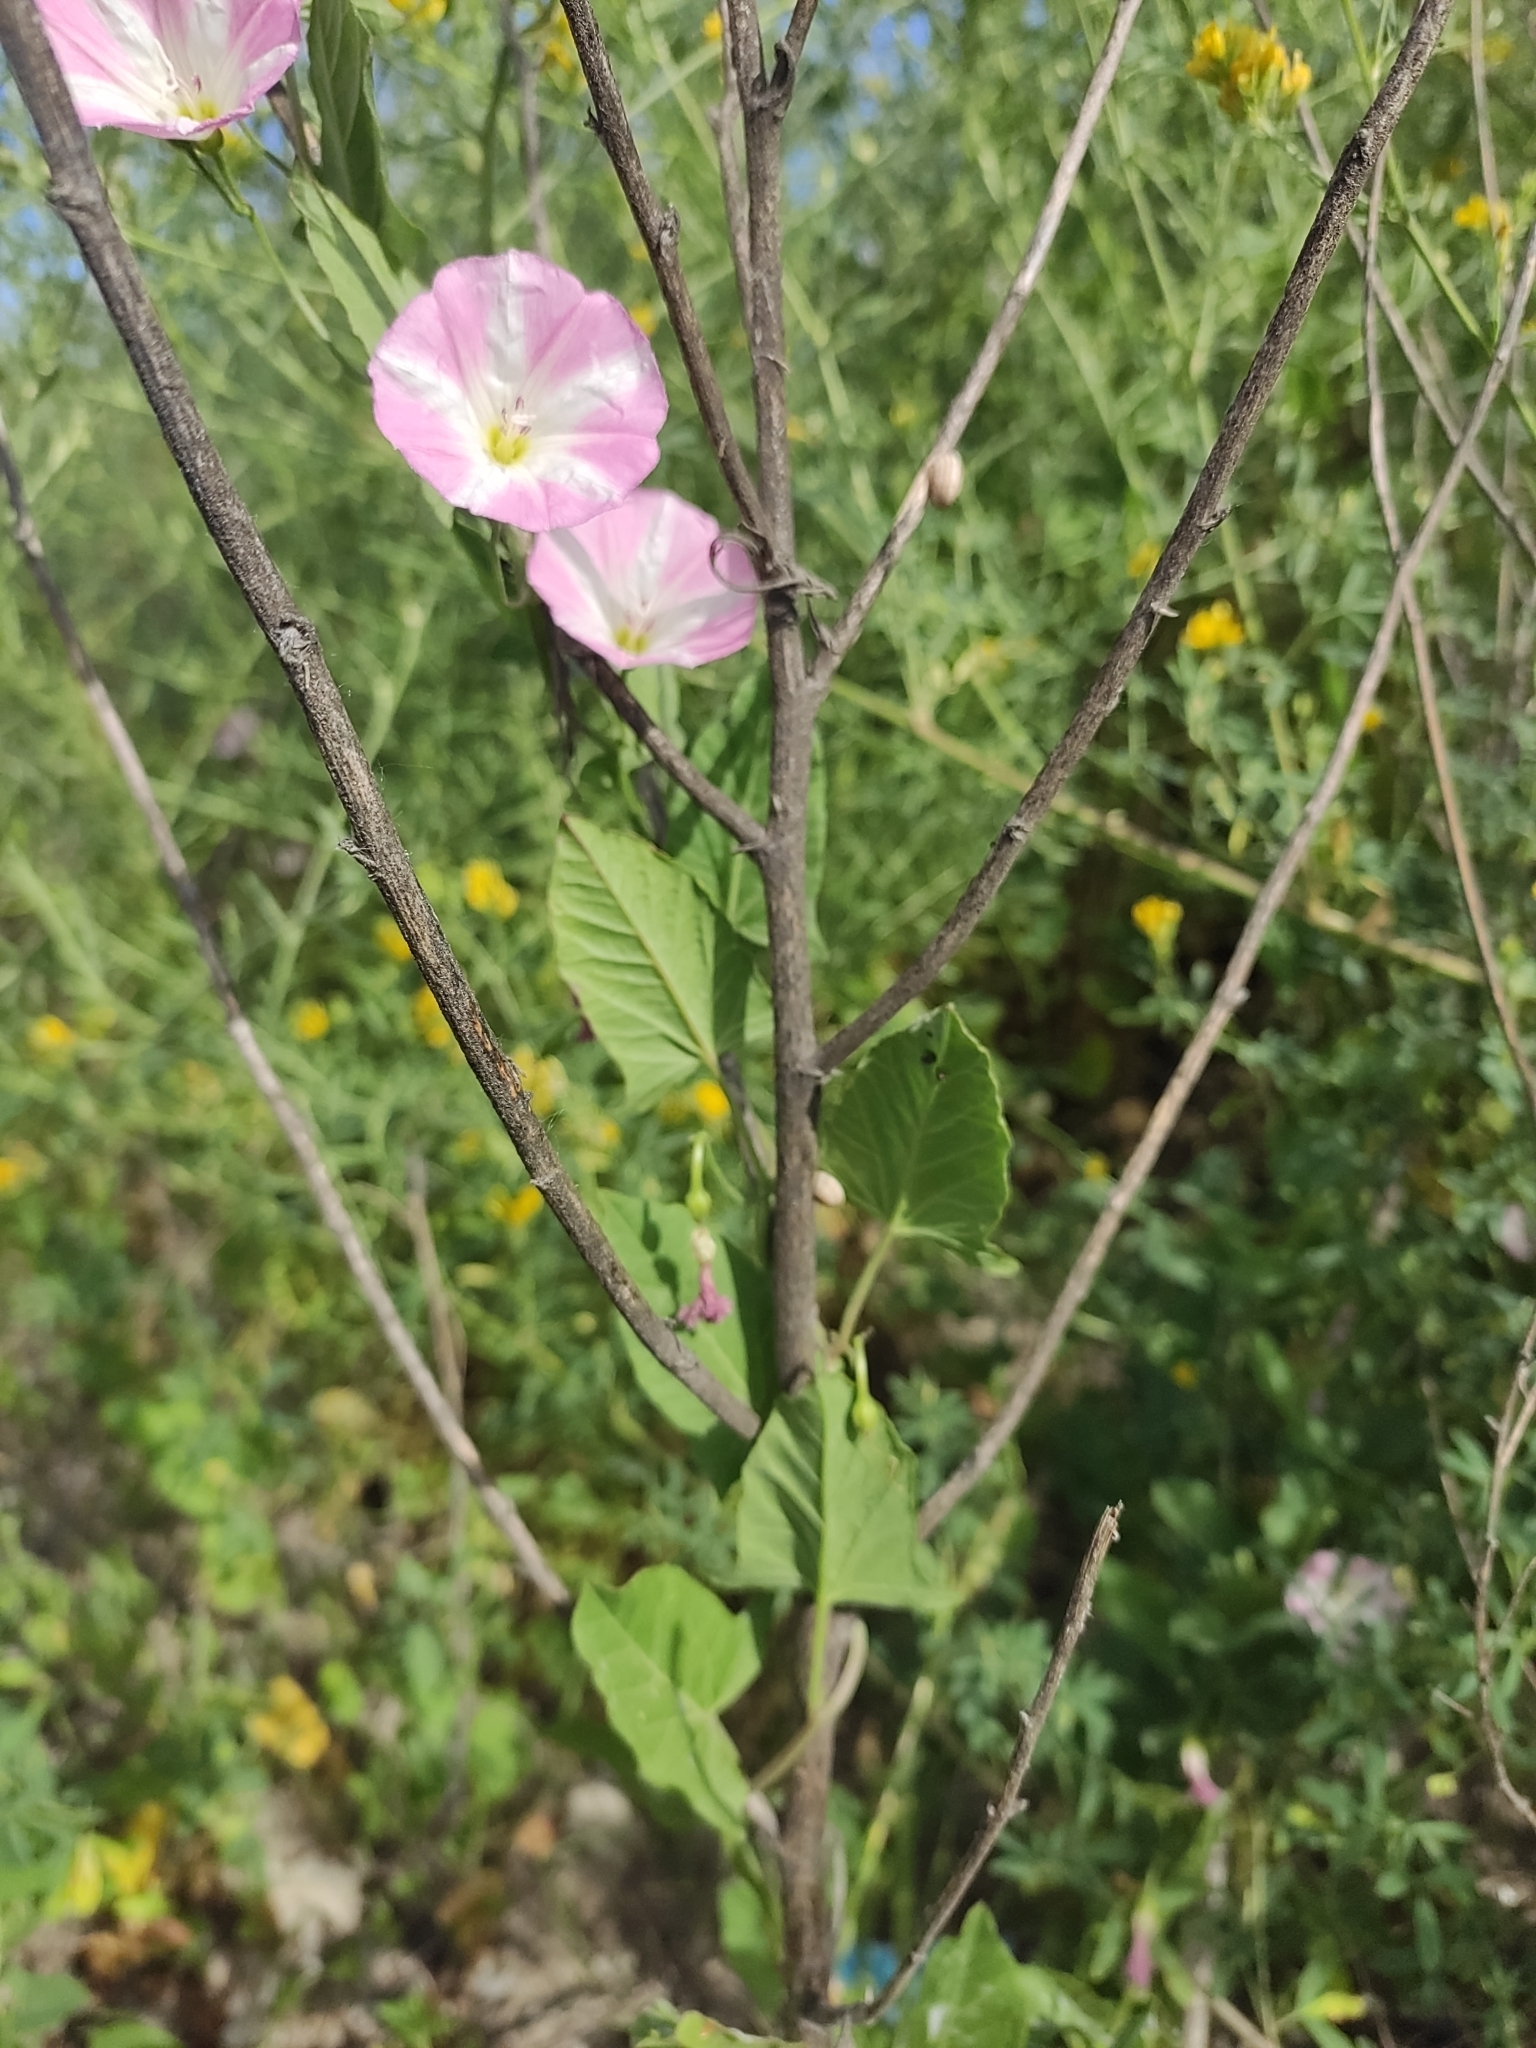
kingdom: Plantae
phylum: Tracheophyta
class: Magnoliopsida
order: Solanales
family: Convolvulaceae
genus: Convolvulus
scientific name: Convolvulus arvensis
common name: Field bindweed
